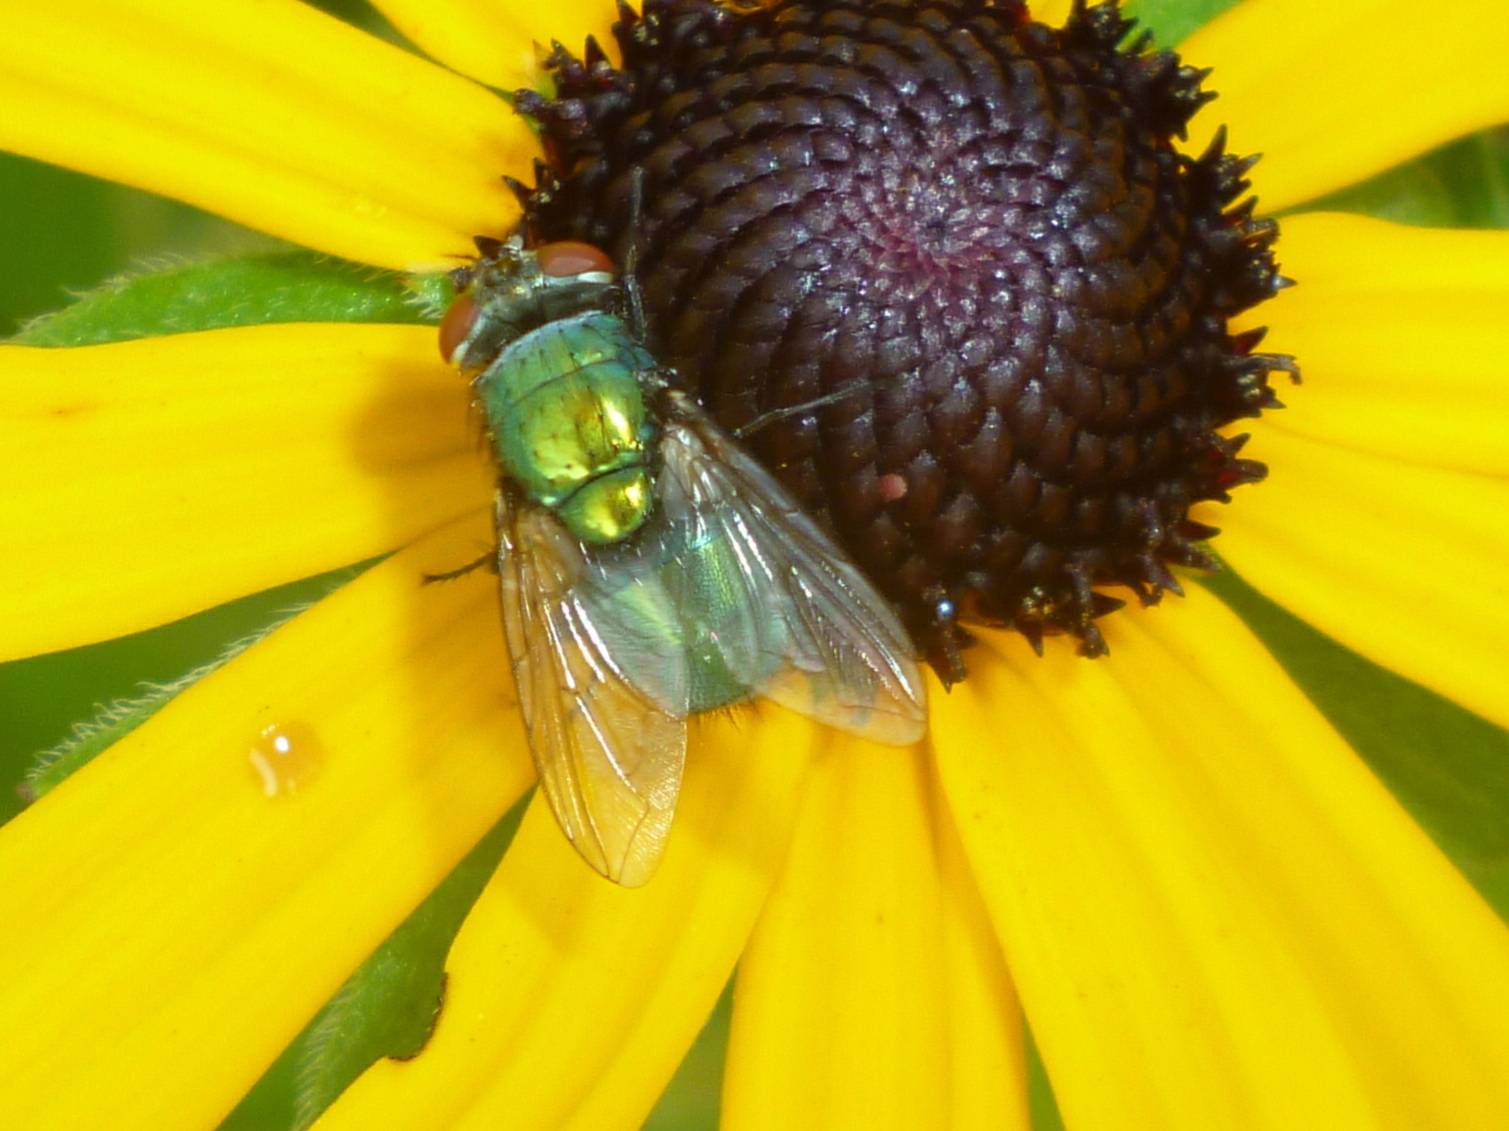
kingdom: Animalia
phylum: Arthropoda
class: Insecta
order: Diptera
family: Calliphoridae
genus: Lucilia
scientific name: Lucilia sericata
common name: Blow fly
